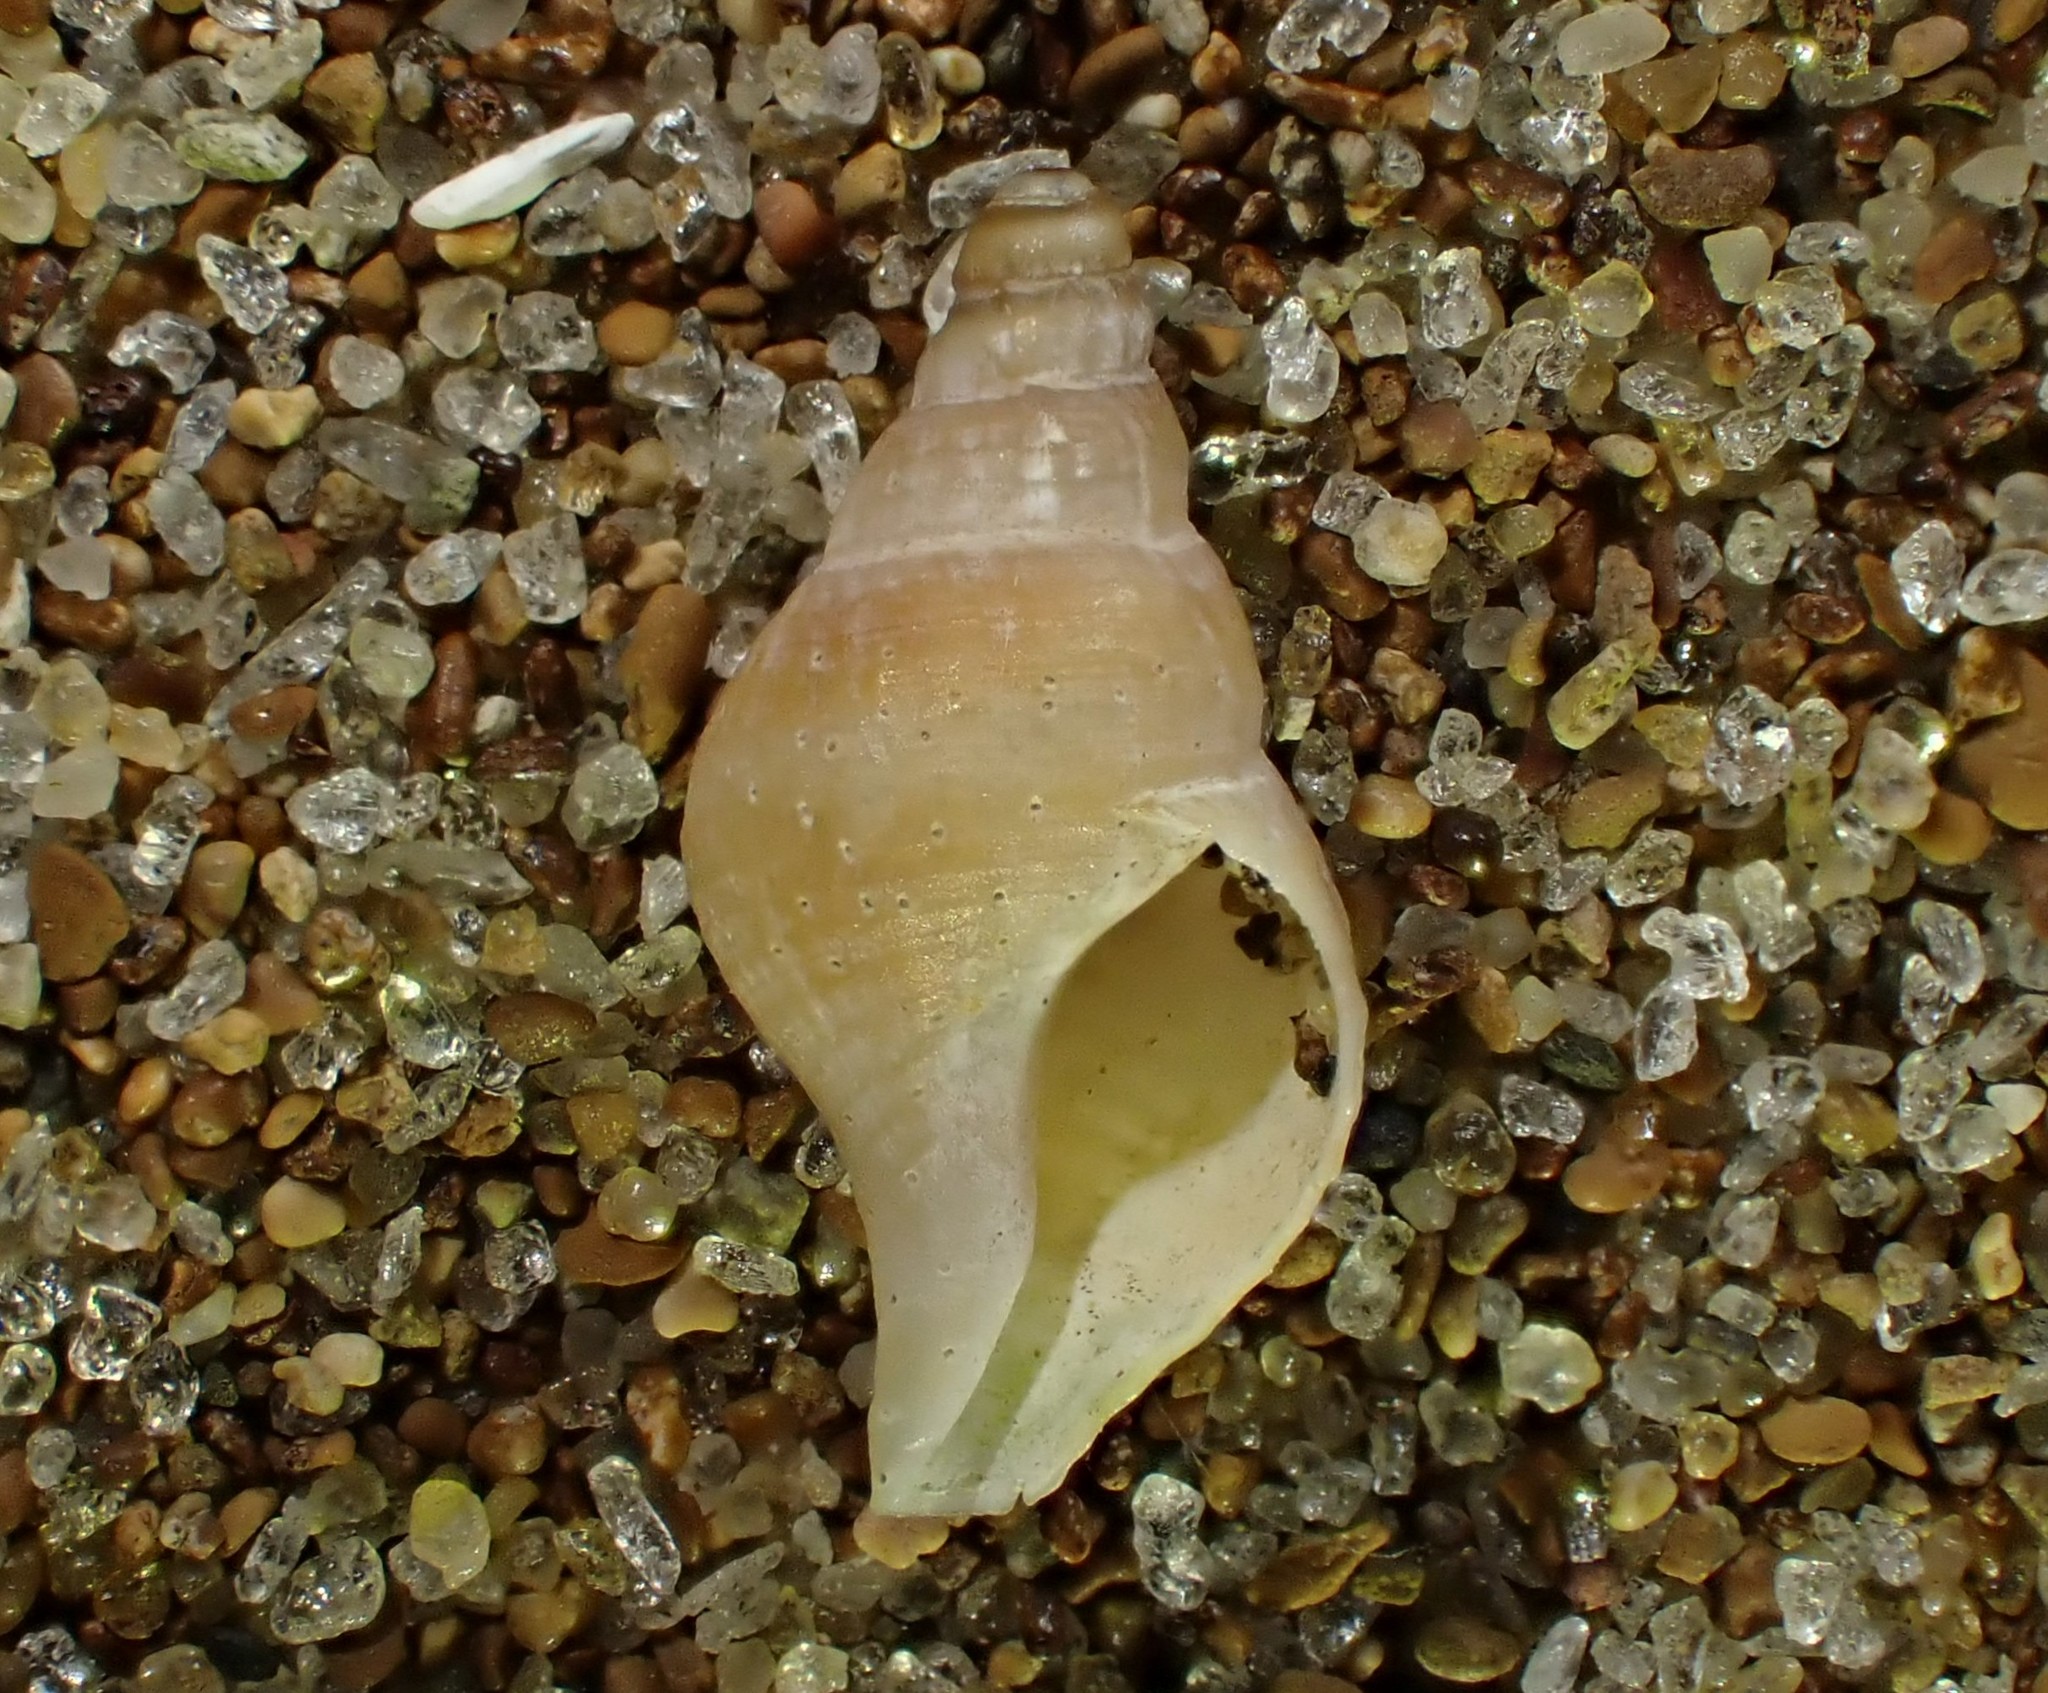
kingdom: Animalia
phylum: Mollusca
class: Gastropoda
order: Neogastropoda
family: Tudiclidae
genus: Buccinulum
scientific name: Buccinulum vittatum
